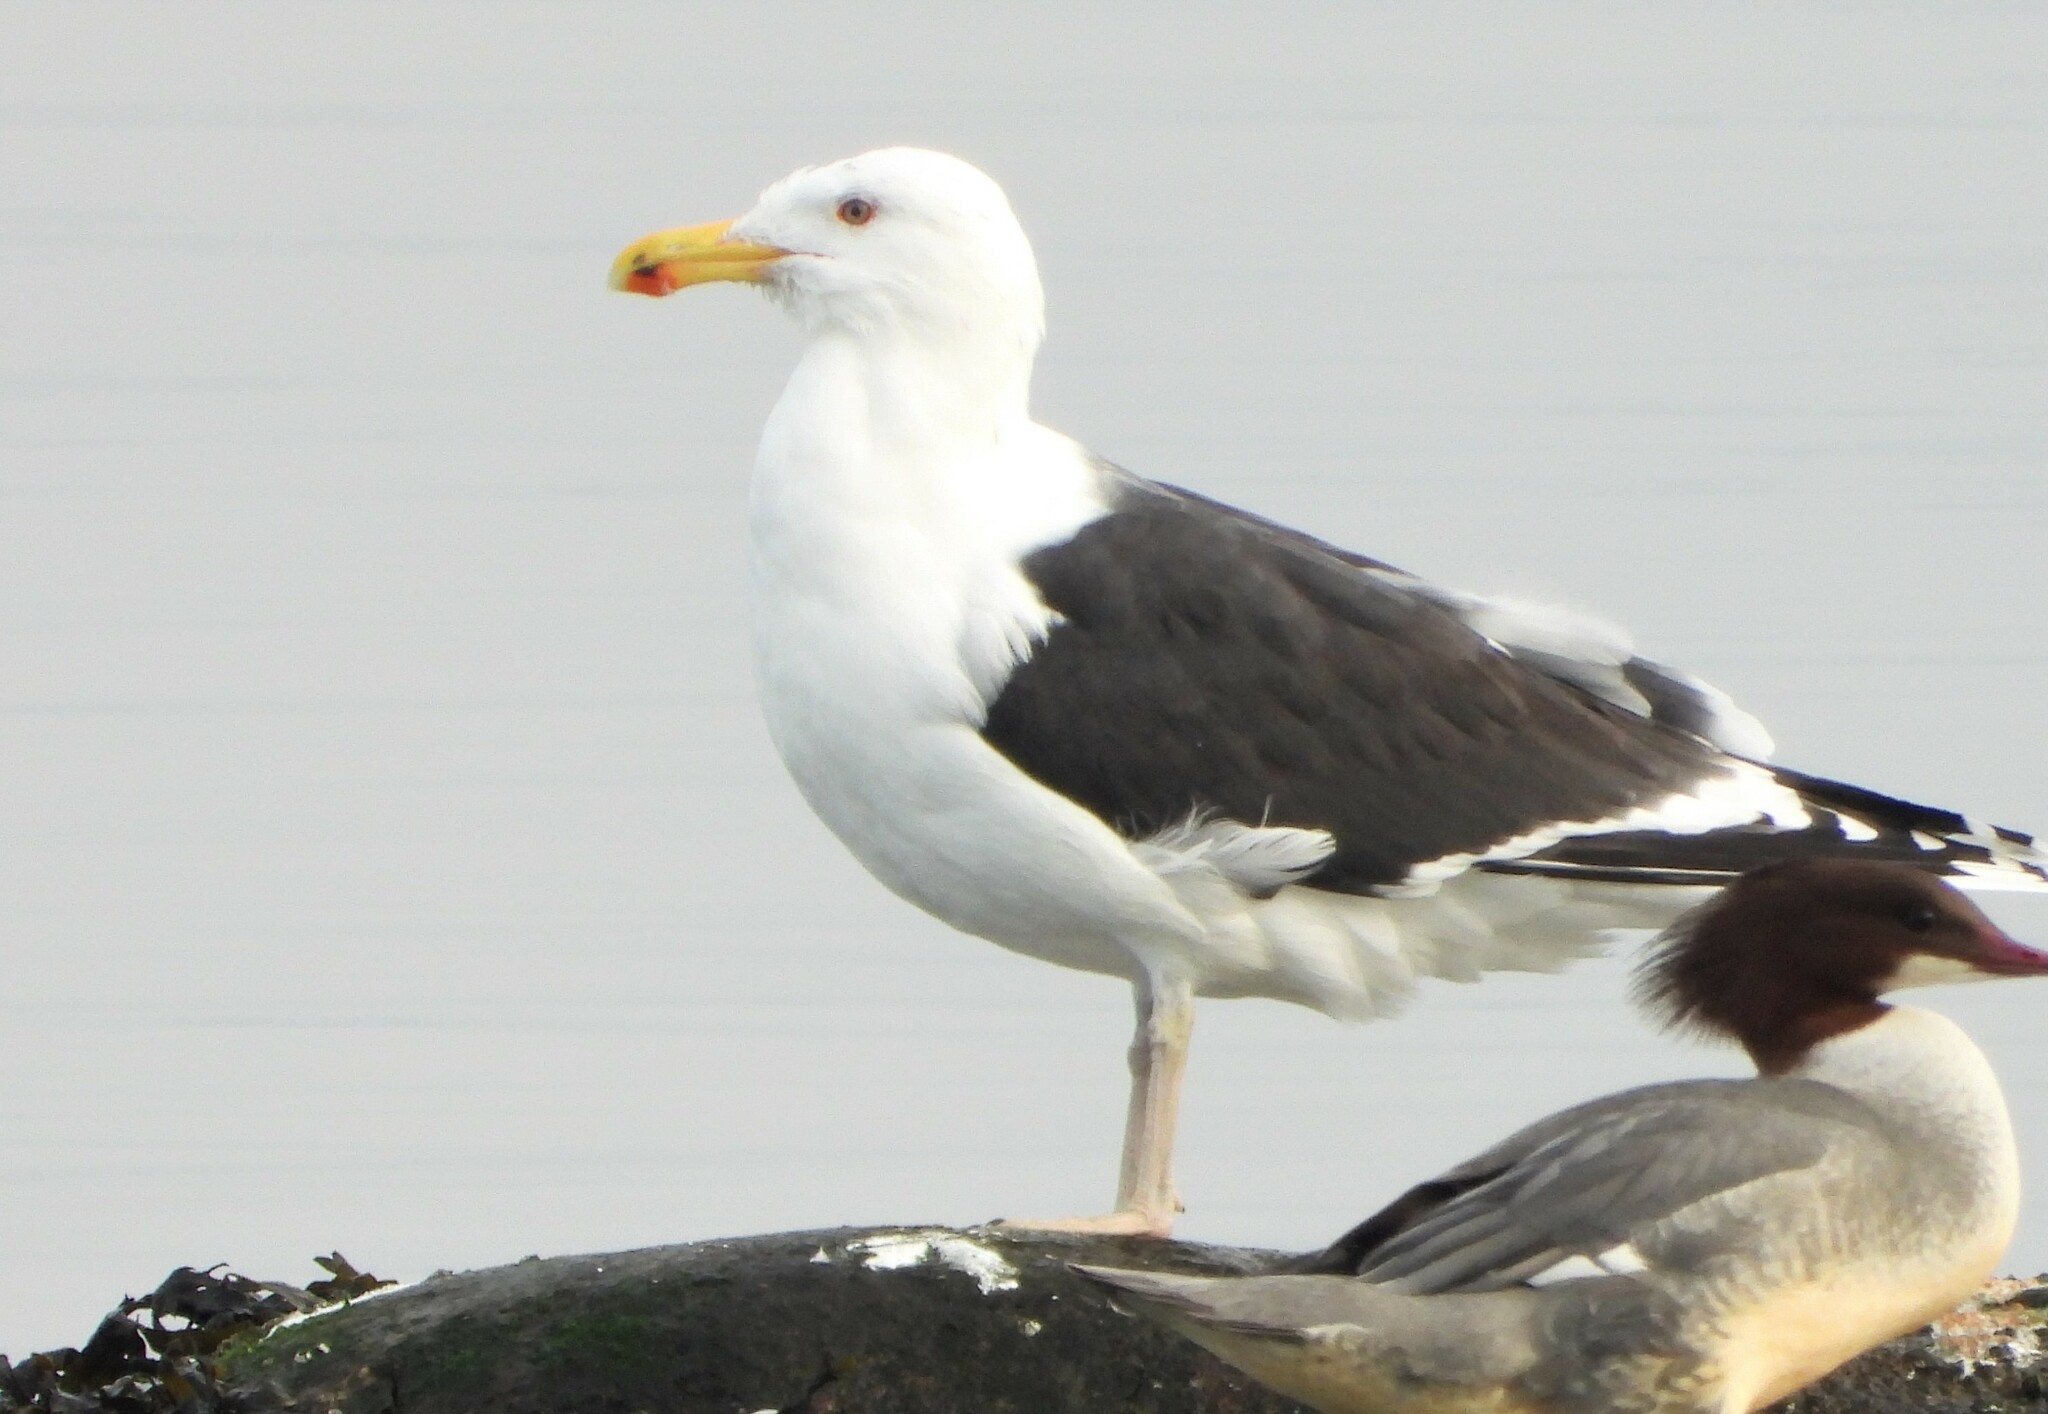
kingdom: Animalia
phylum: Chordata
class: Aves
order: Charadriiformes
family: Laridae
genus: Larus
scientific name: Larus marinus
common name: Great black-backed gull
